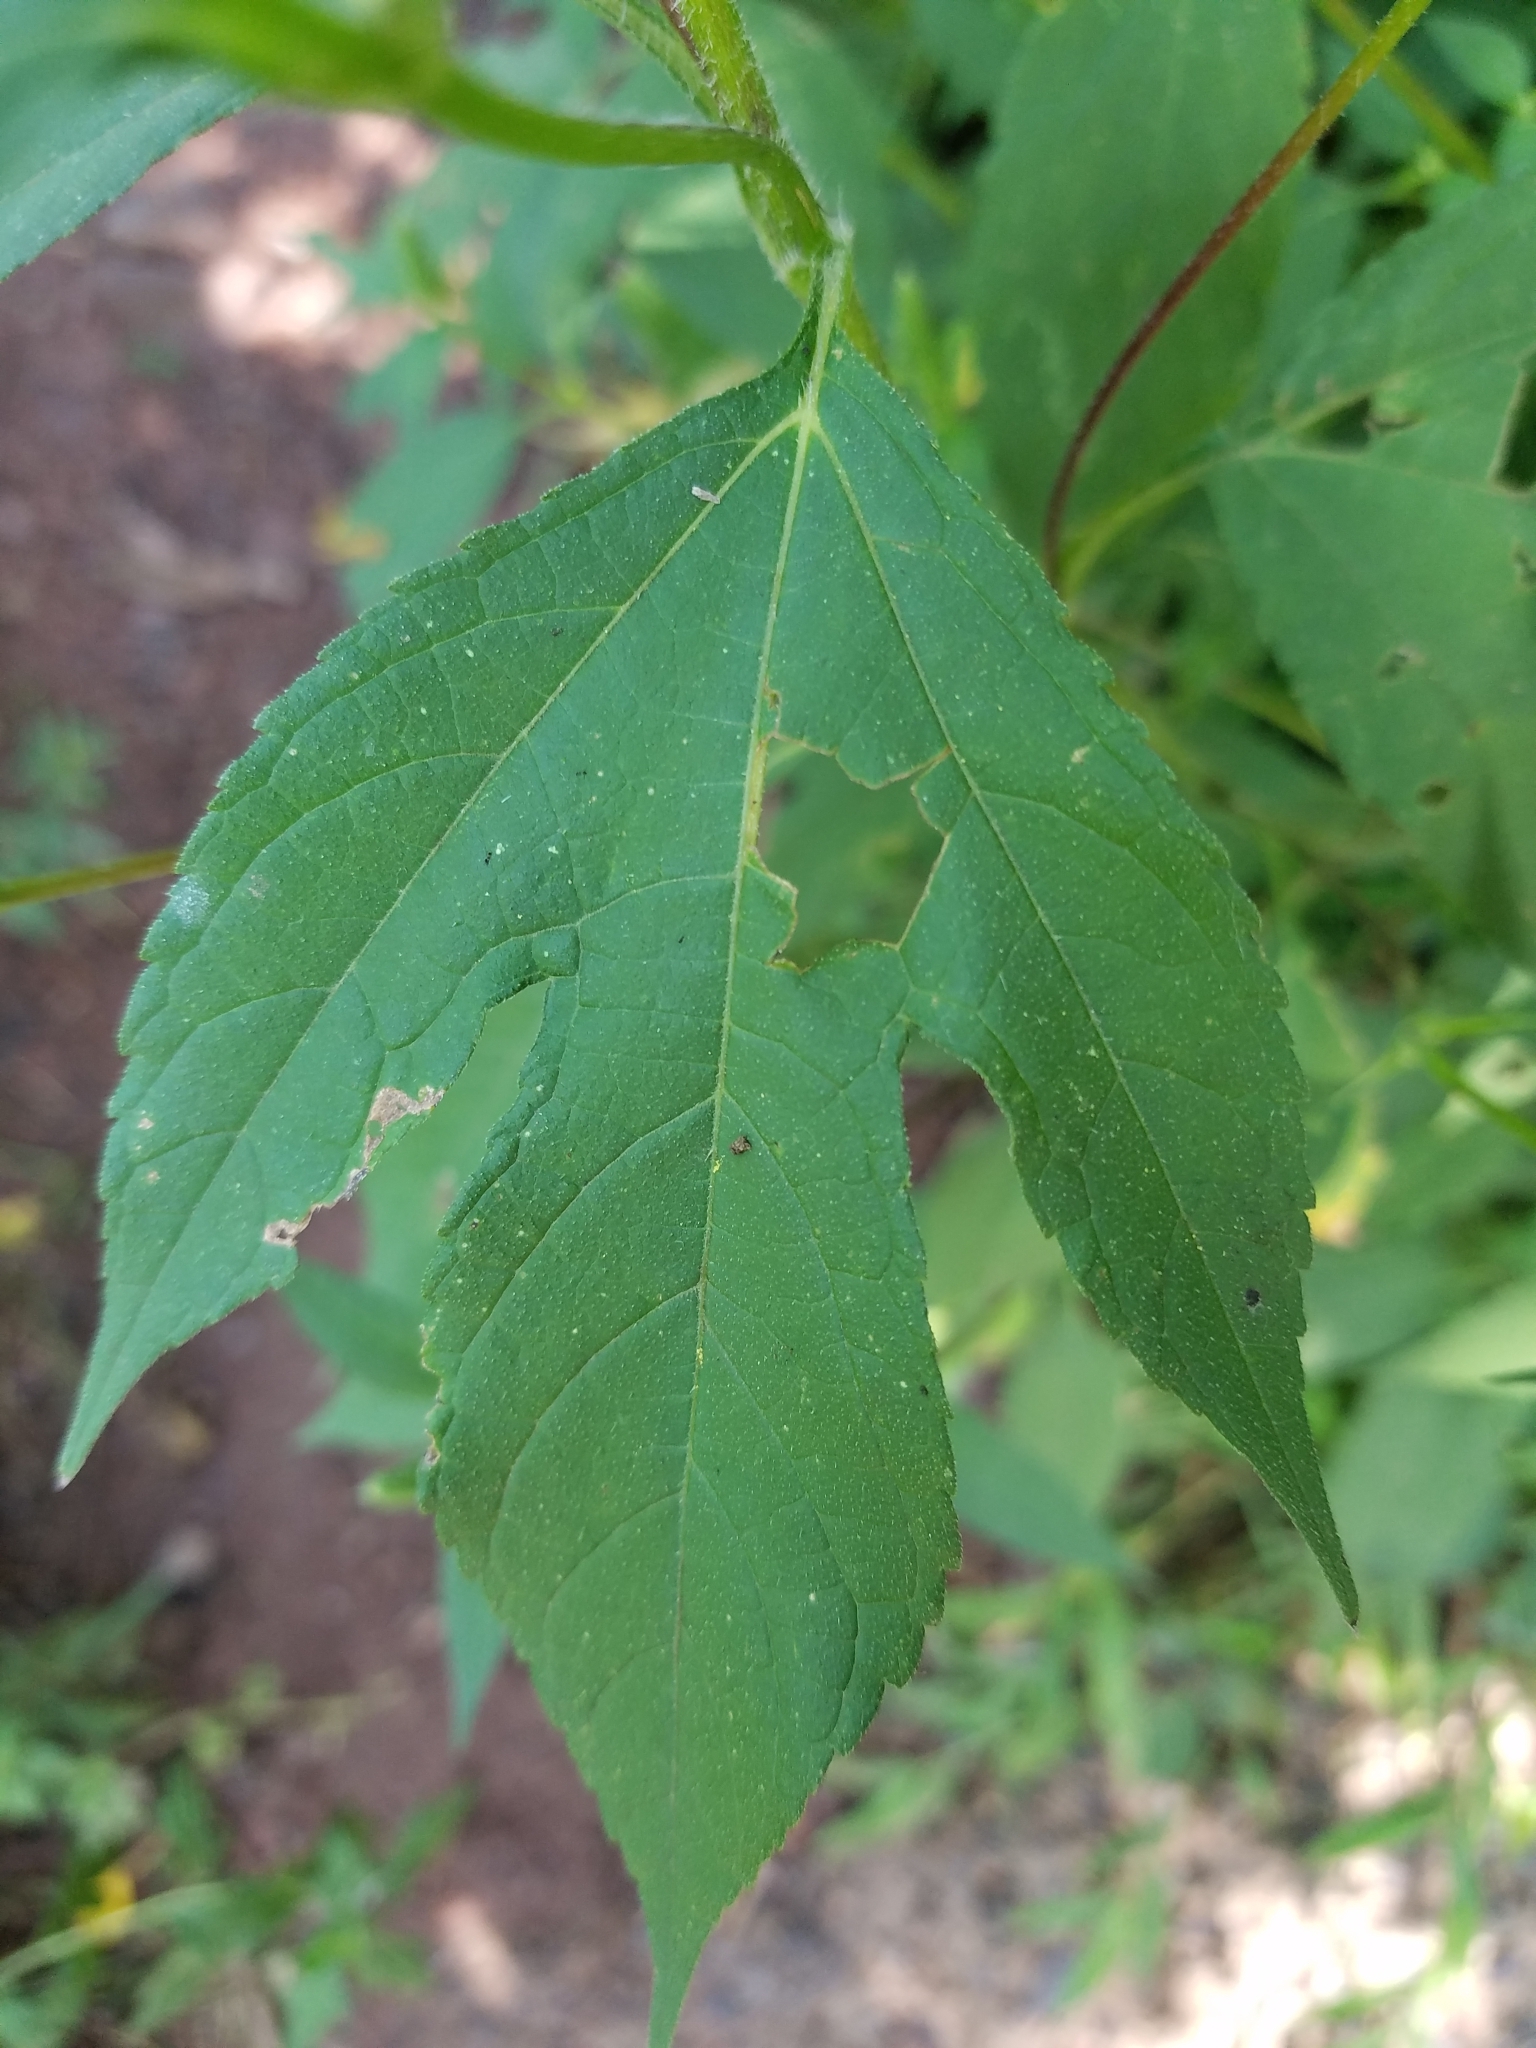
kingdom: Plantae
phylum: Tracheophyta
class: Magnoliopsida
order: Asterales
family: Asteraceae
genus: Ambrosia
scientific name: Ambrosia trifida
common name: Giant ragweed
